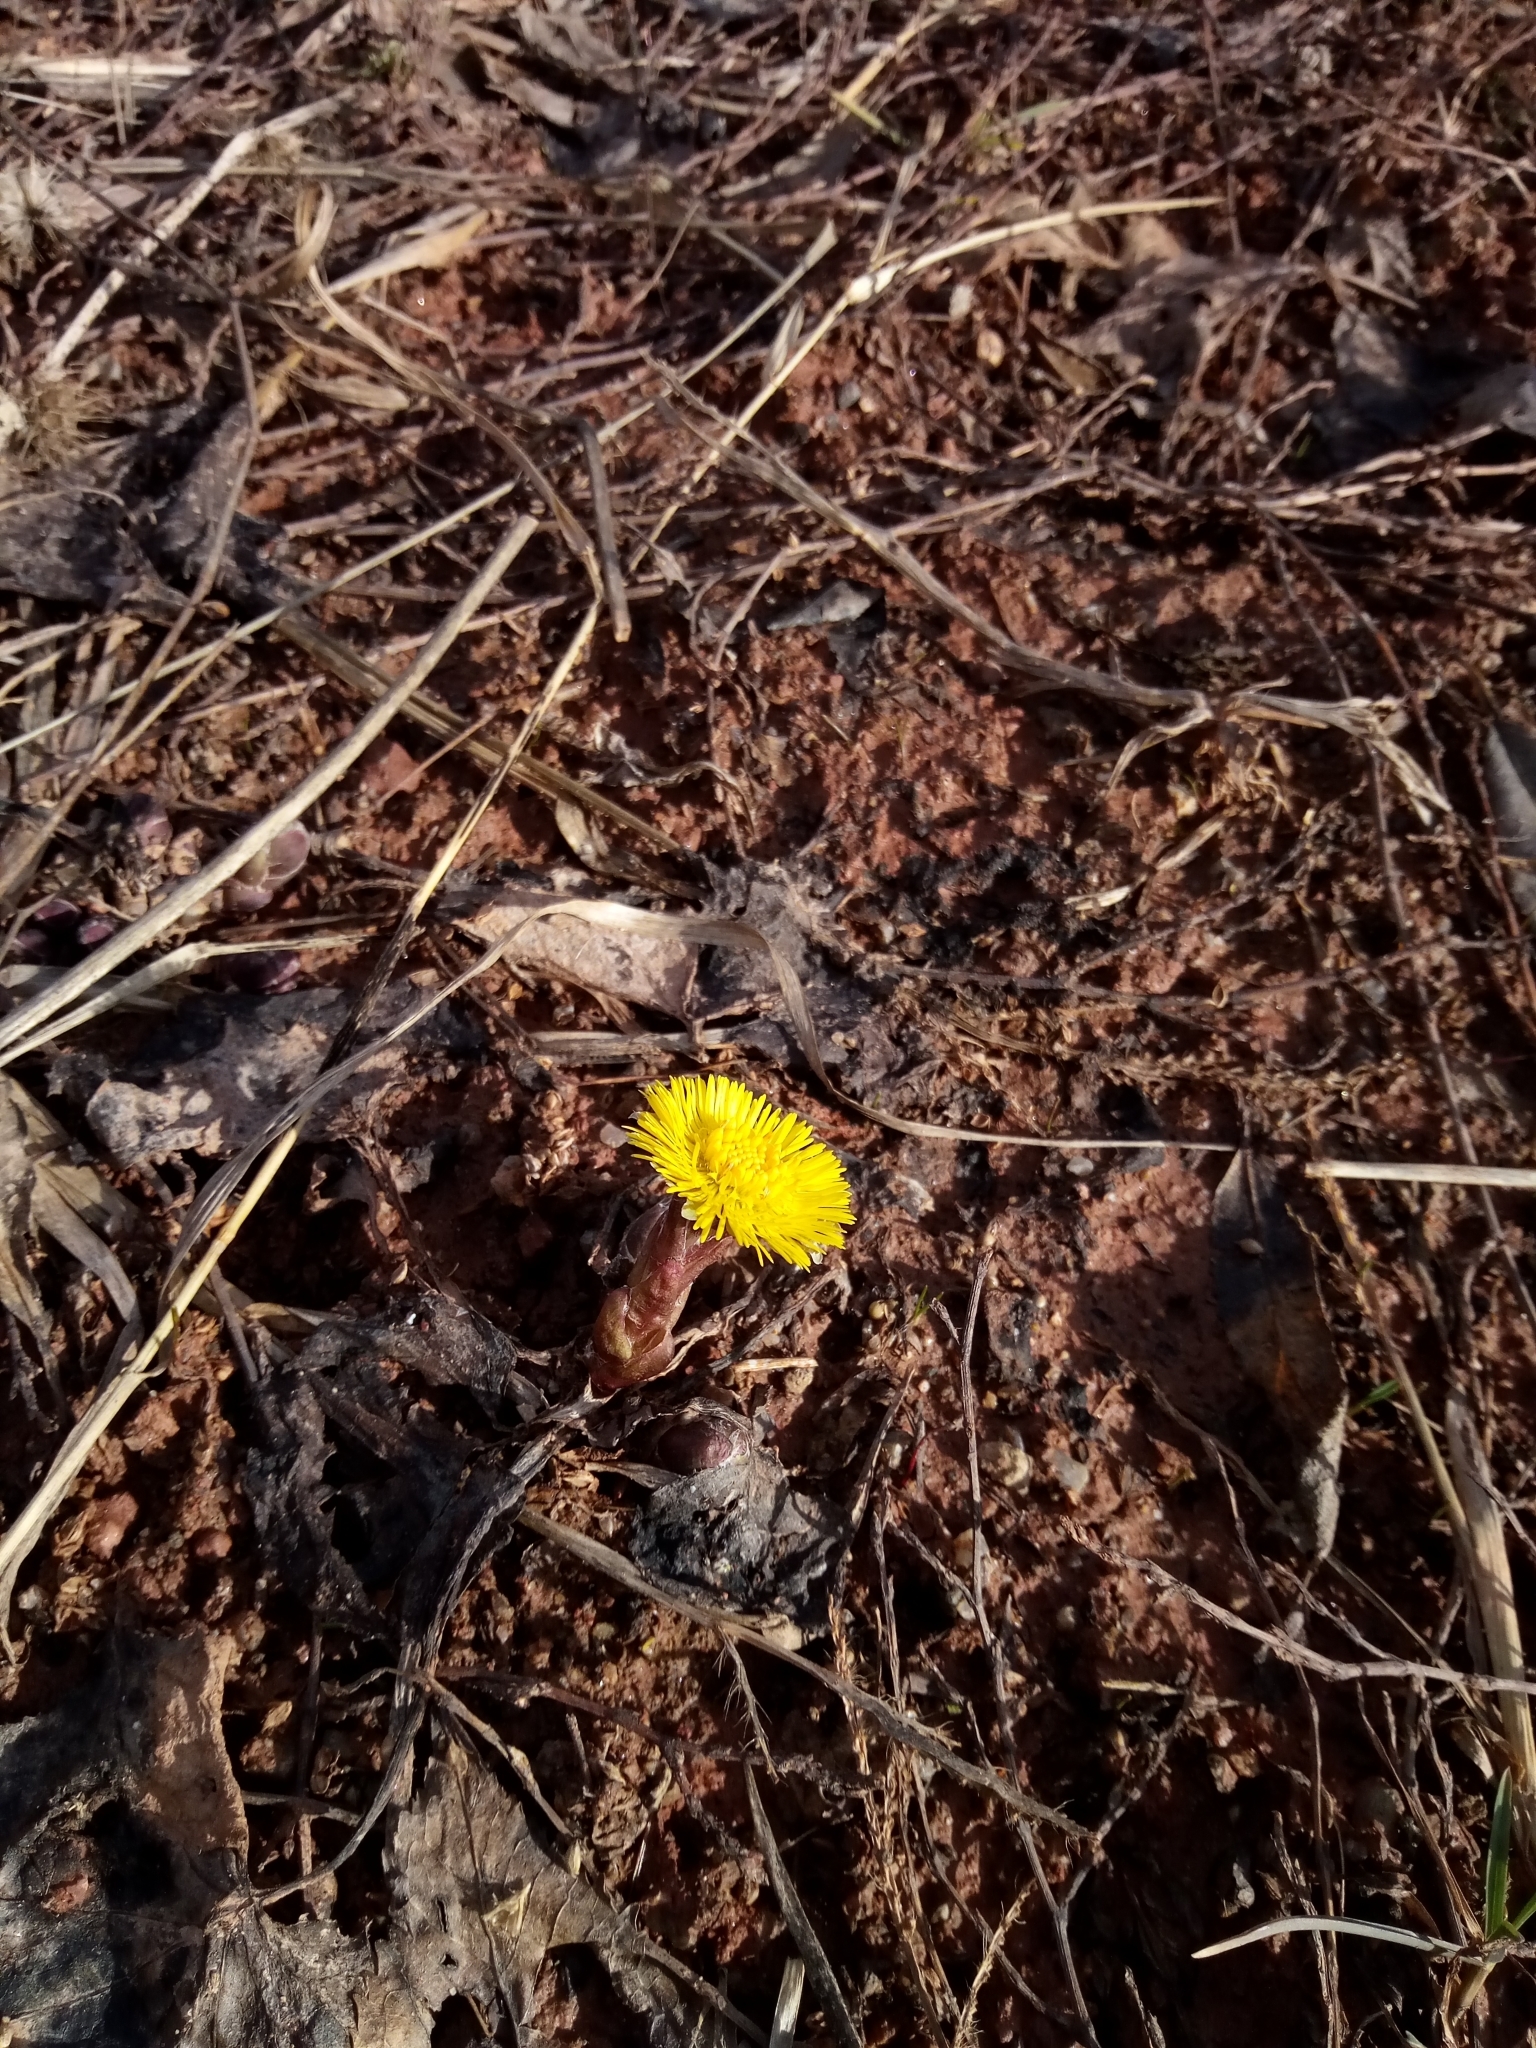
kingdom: Plantae
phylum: Tracheophyta
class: Magnoliopsida
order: Asterales
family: Asteraceae
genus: Tussilago
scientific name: Tussilago farfara
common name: Coltsfoot
